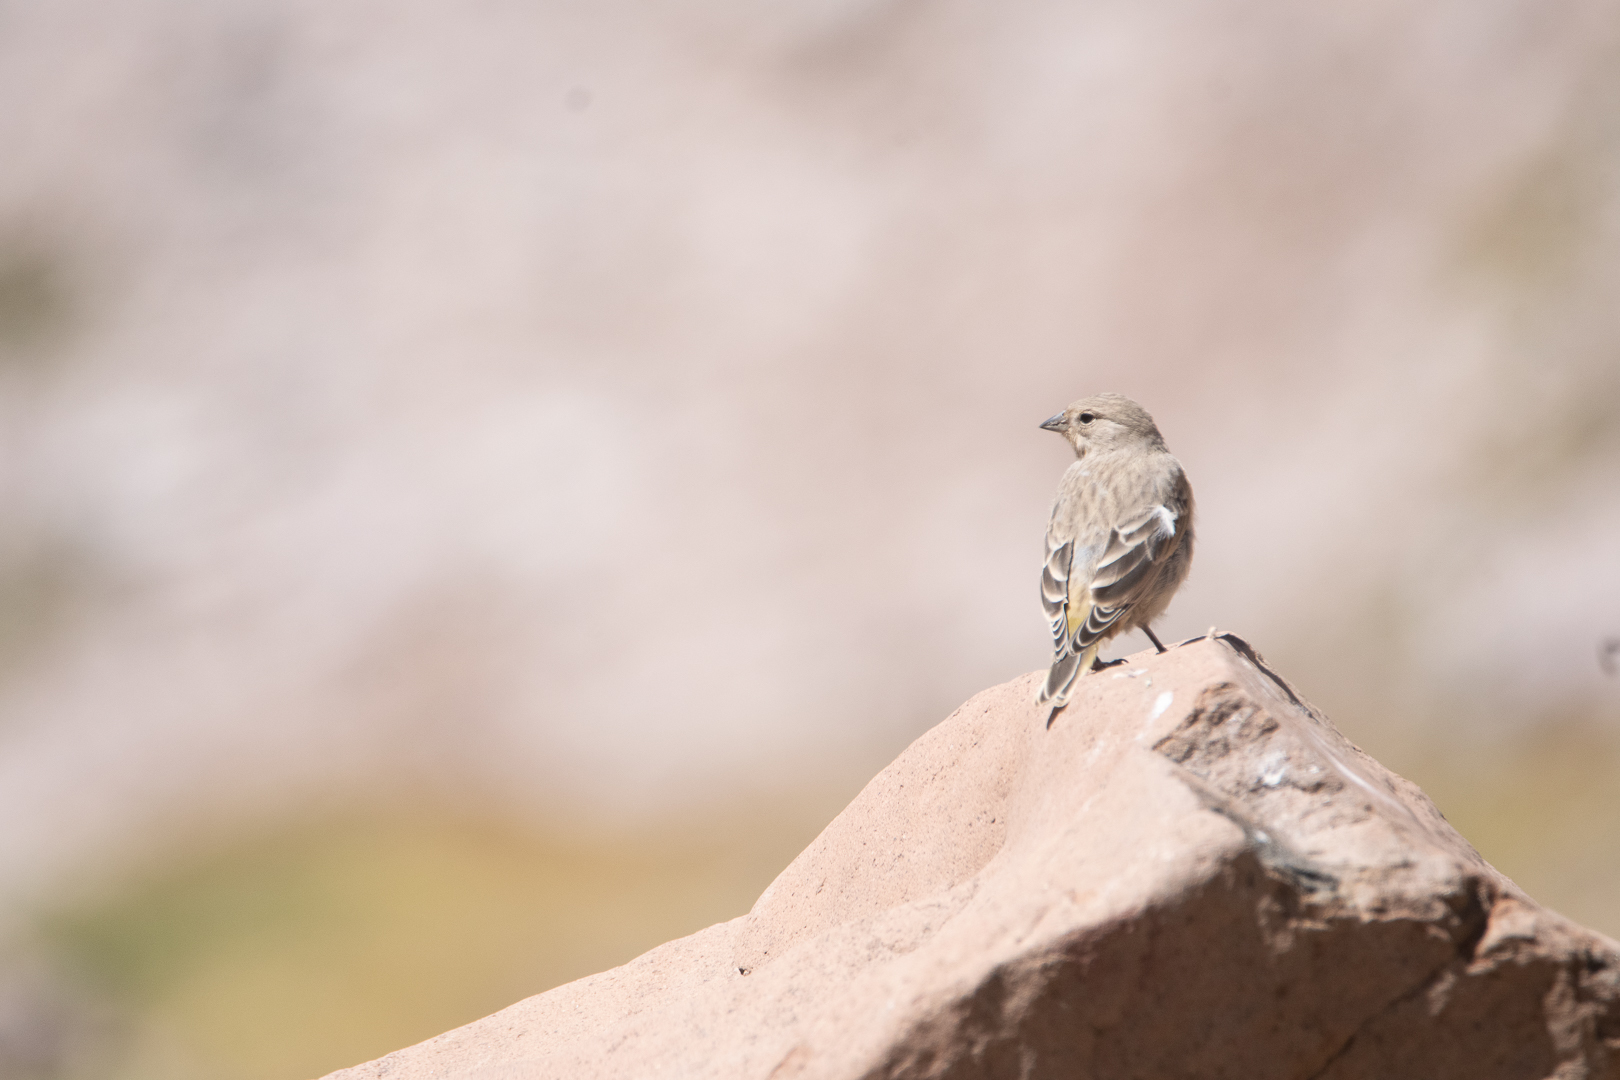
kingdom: Animalia
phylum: Chordata
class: Aves
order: Passeriformes
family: Thraupidae
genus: Sicalis
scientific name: Sicalis auriventris
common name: Greater yellow finch
